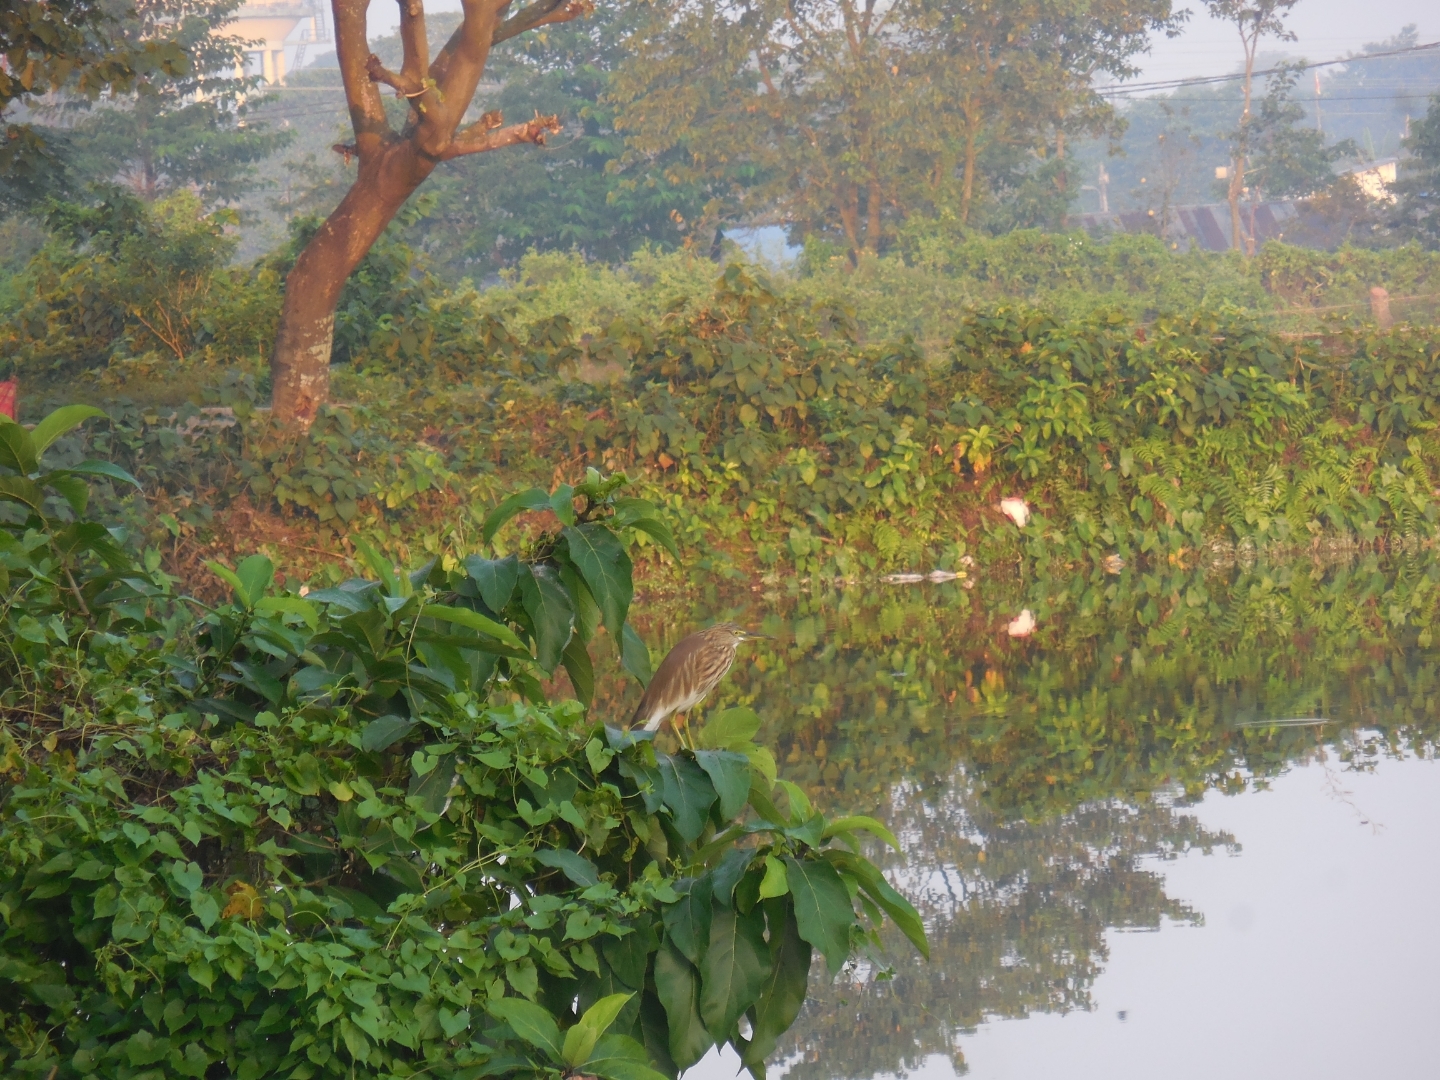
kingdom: Animalia
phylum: Chordata
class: Aves
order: Pelecaniformes
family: Ardeidae
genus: Ardeola
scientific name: Ardeola grayii
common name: Indian pond heron
